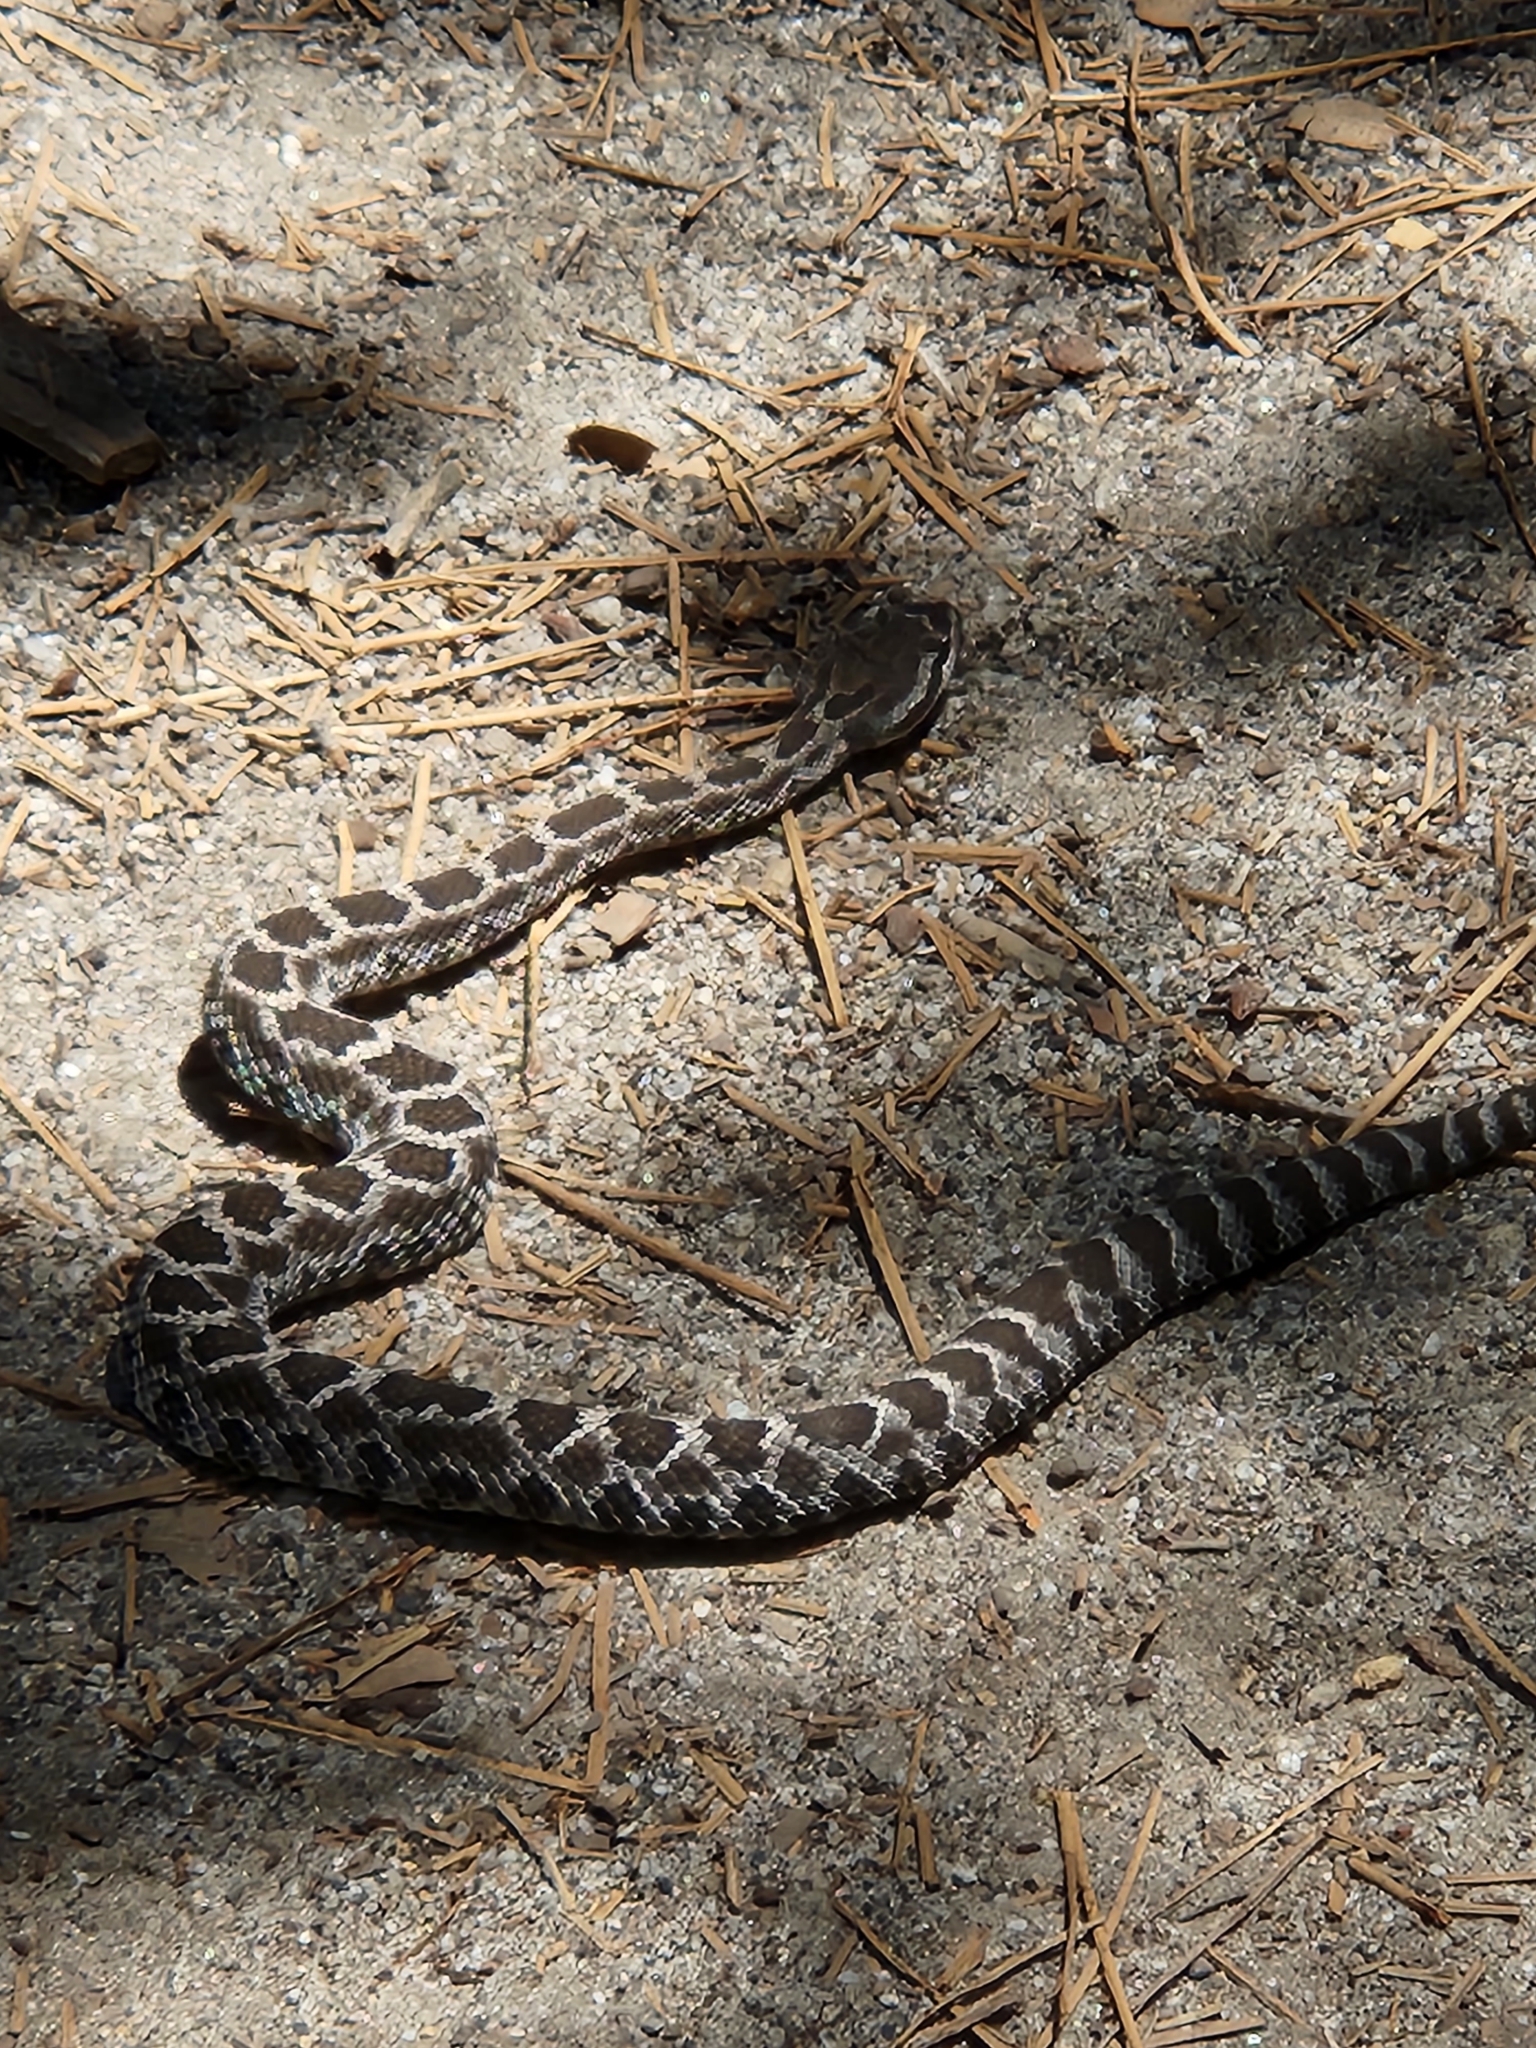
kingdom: Animalia
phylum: Chordata
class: Squamata
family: Viperidae
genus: Crotalus
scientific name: Crotalus oreganus
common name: Abyssus
